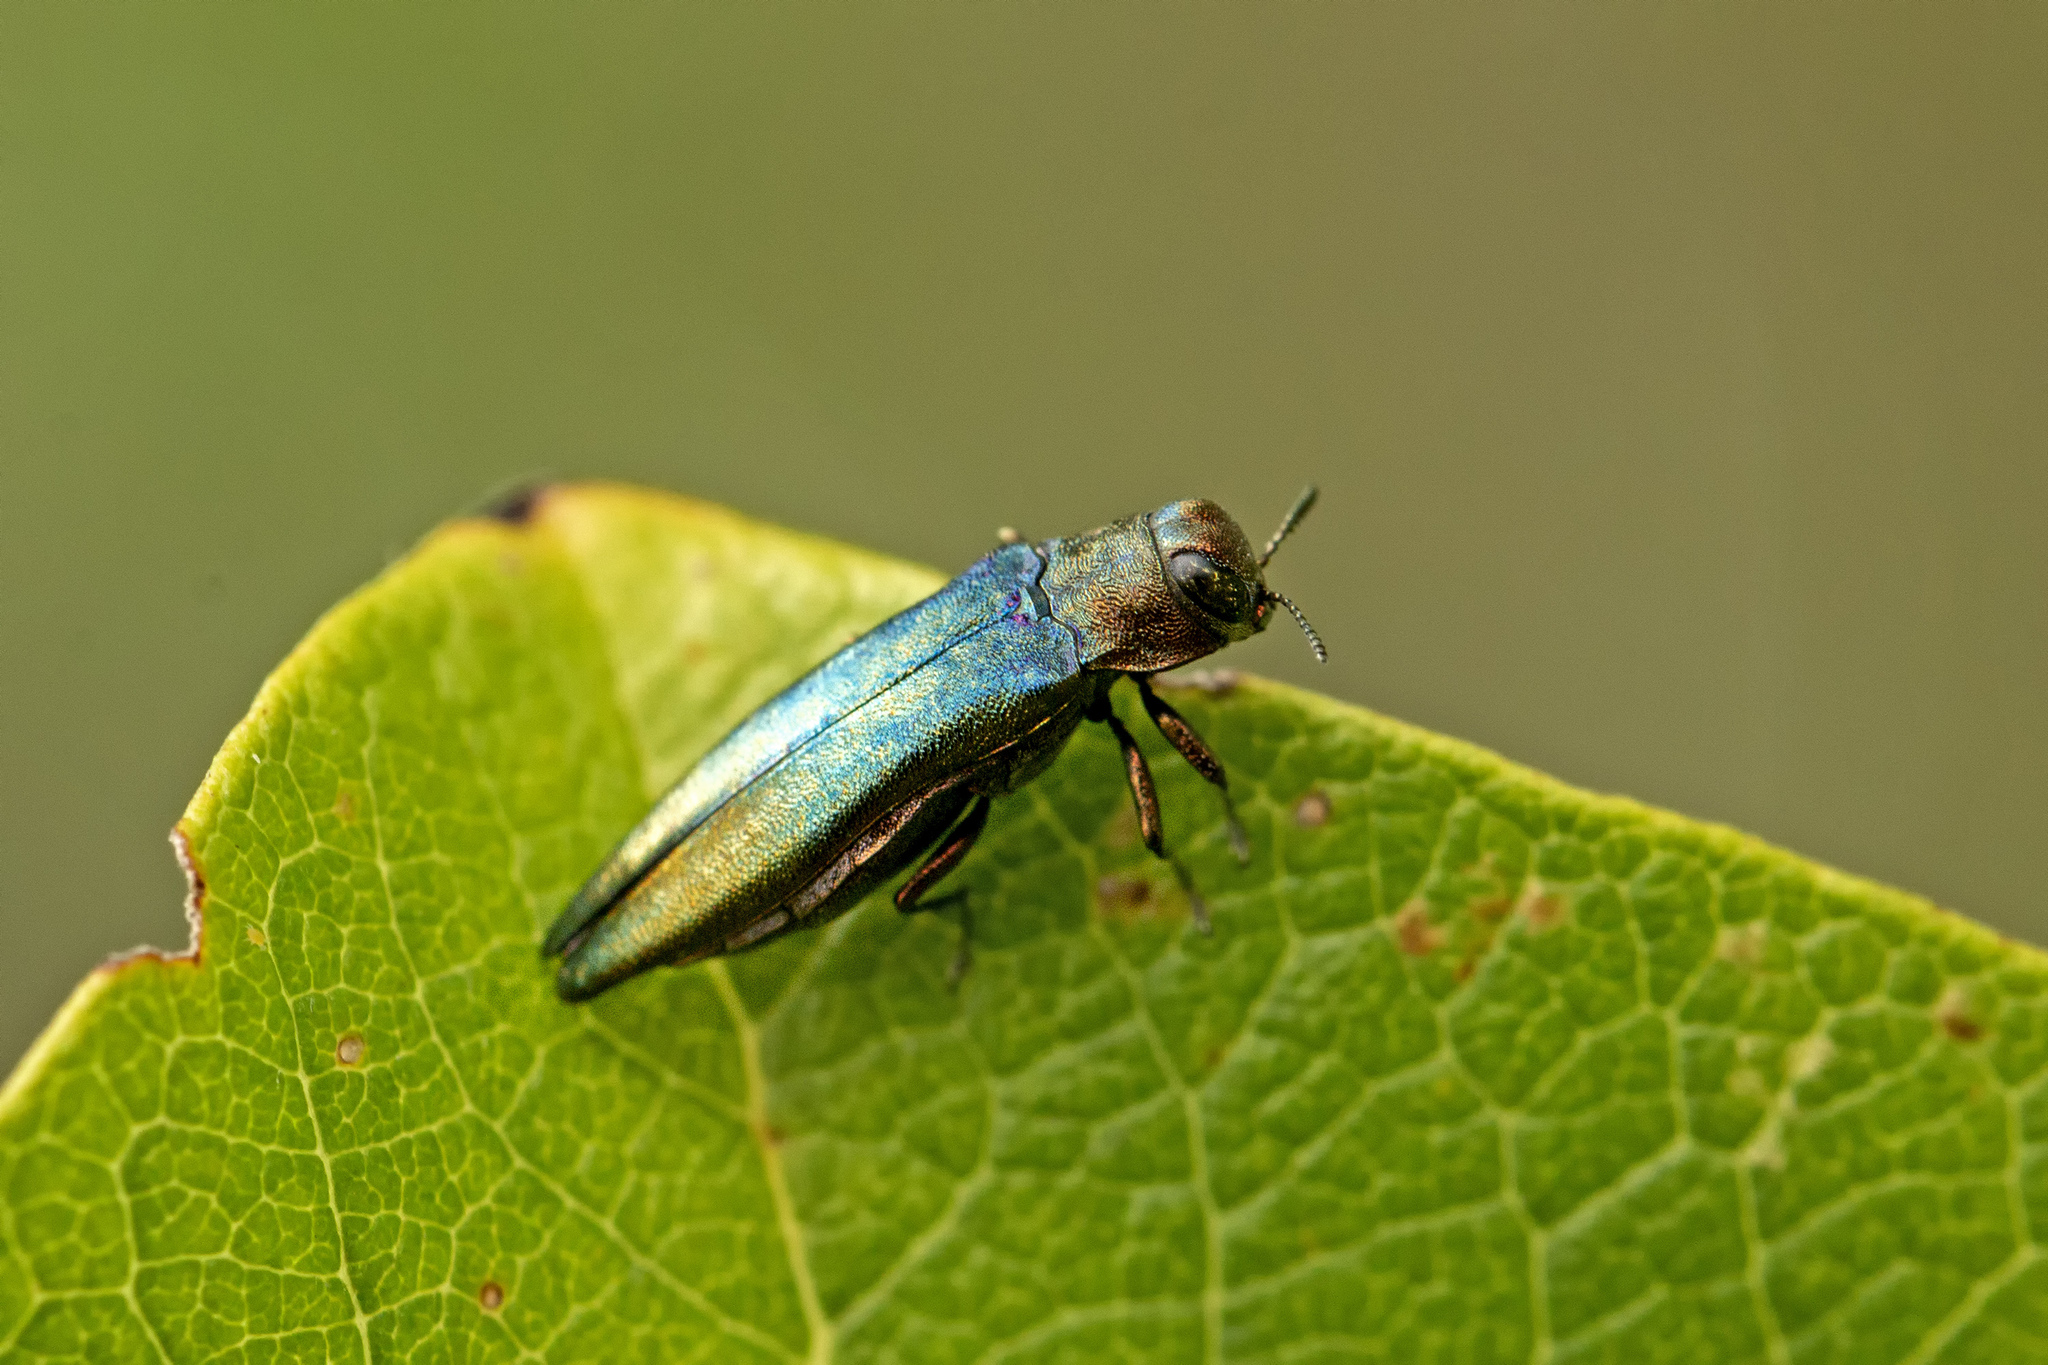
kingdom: Animalia
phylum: Arthropoda
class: Insecta
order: Coleoptera
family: Buprestidae
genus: Agrilus
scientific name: Agrilus viridis
